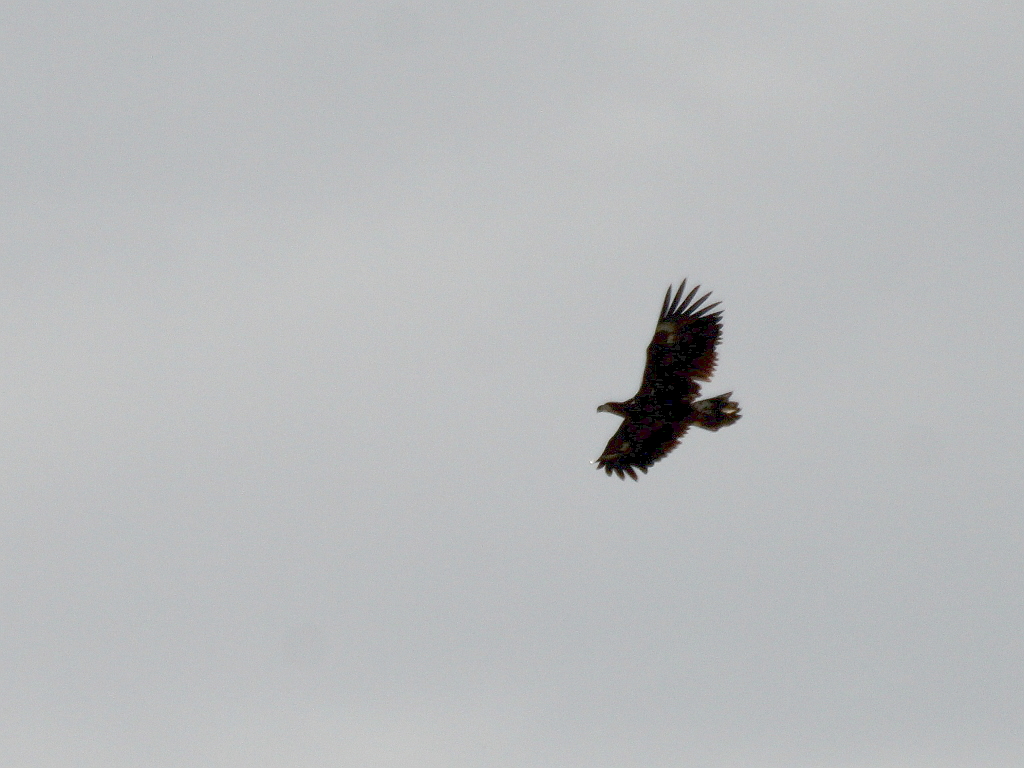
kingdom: Animalia
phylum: Chordata
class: Aves
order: Accipitriformes
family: Accipitridae
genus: Haliaeetus
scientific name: Haliaeetus albicilla
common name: White-tailed eagle
